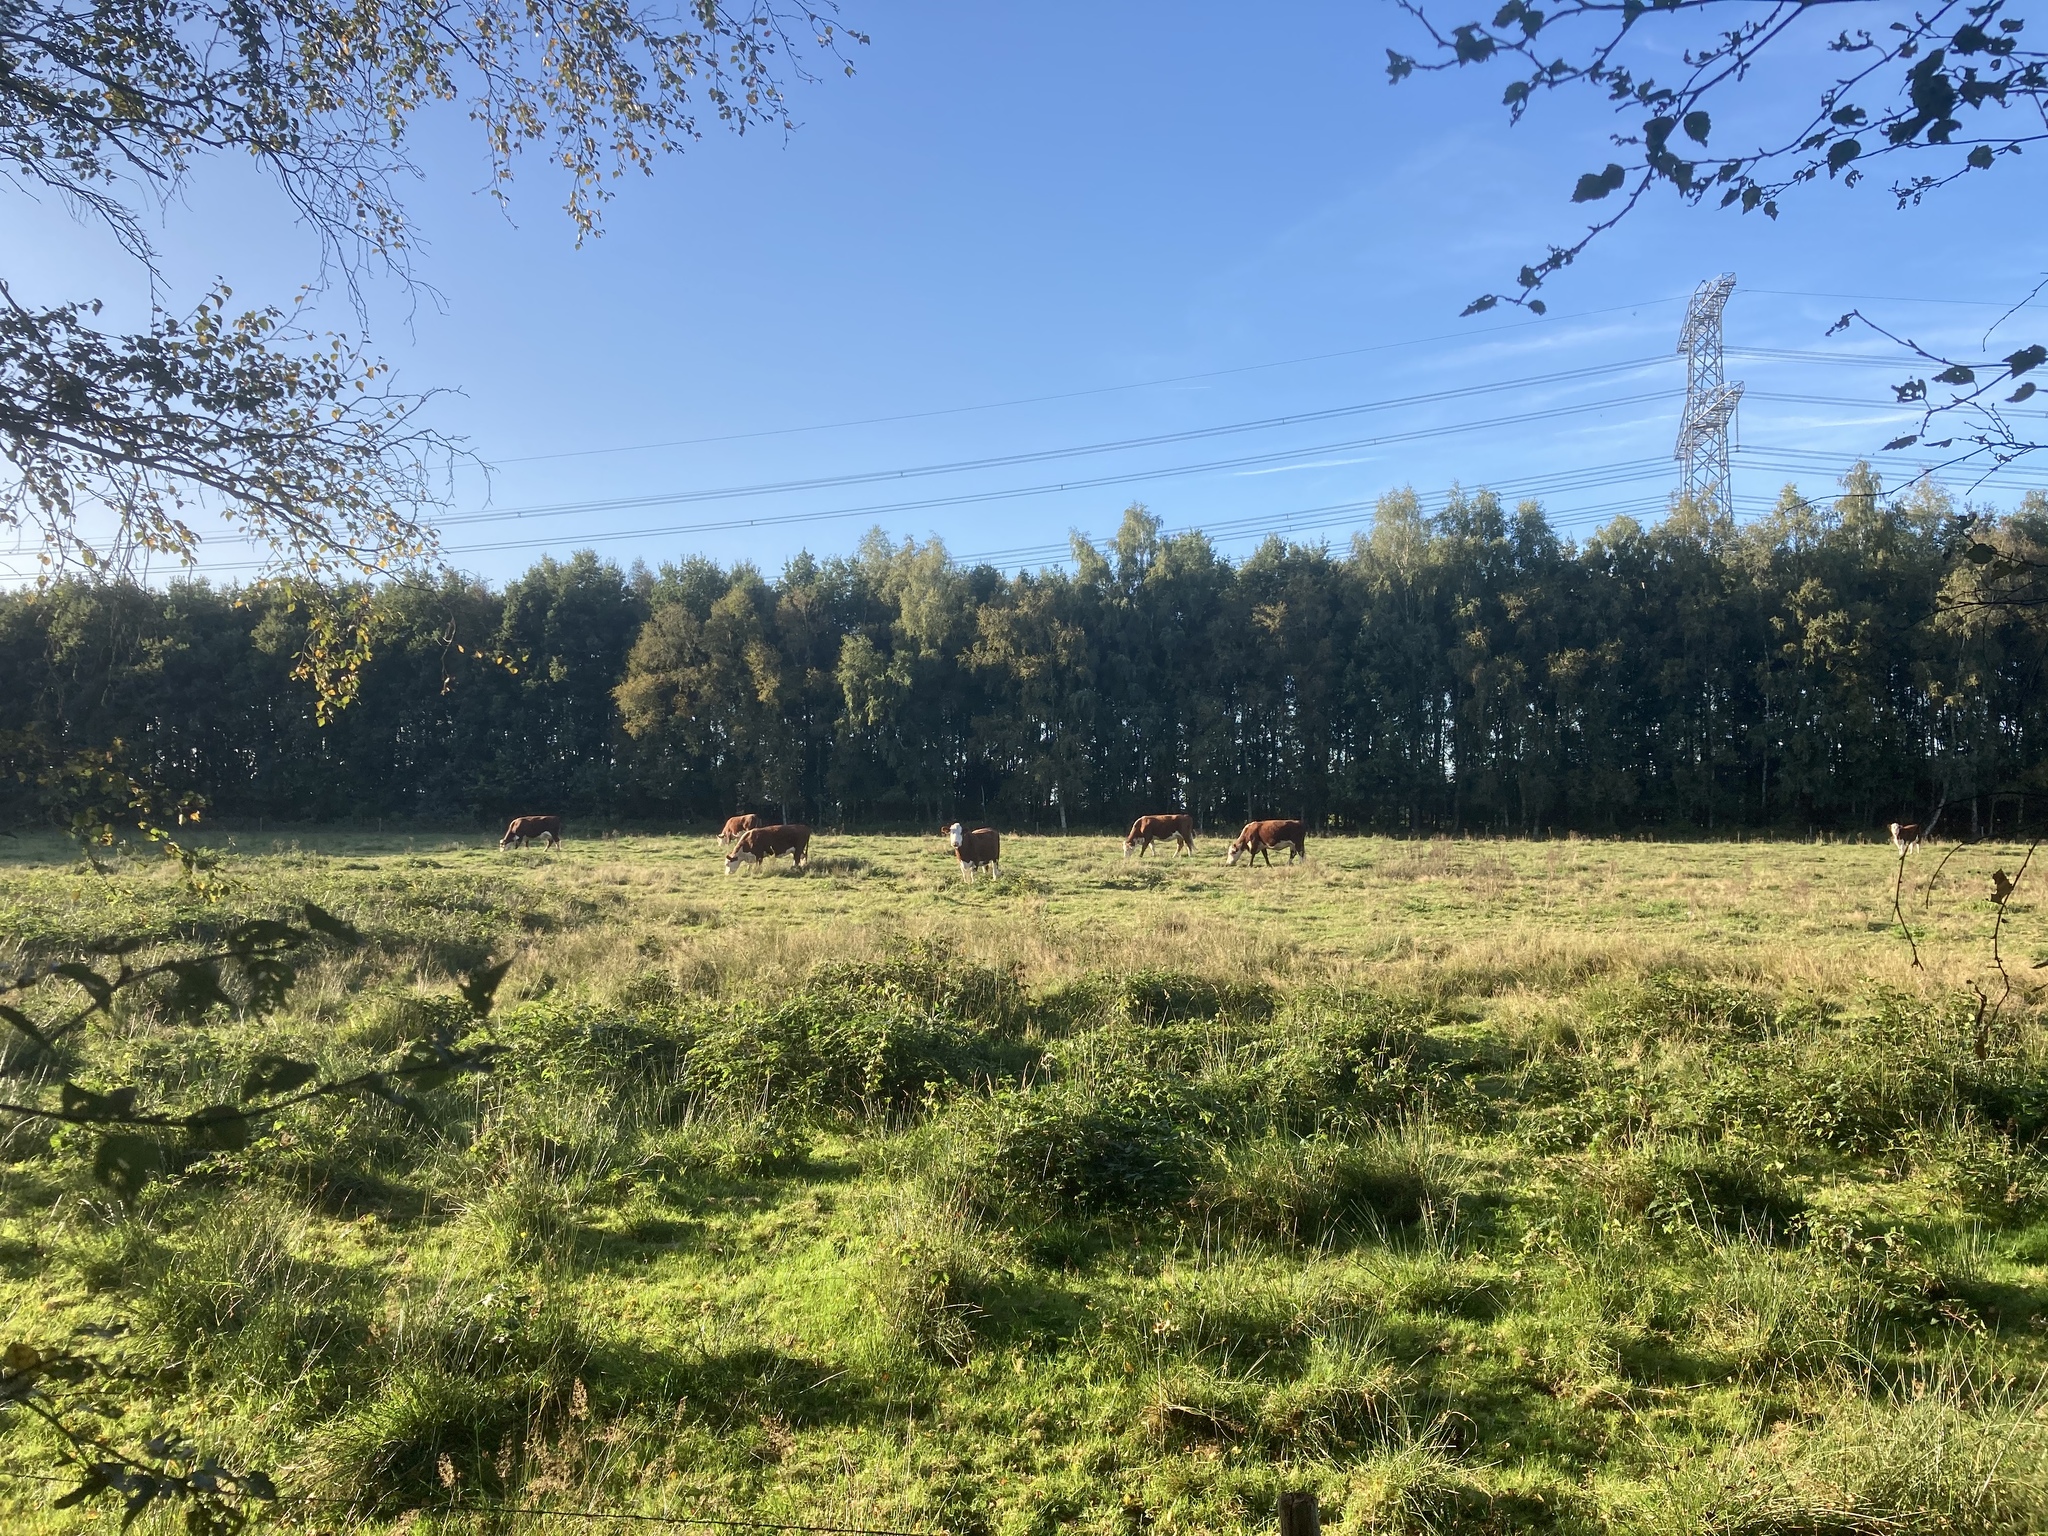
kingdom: Animalia
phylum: Chordata
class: Mammalia
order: Artiodactyla
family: Bovidae
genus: Bos
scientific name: Bos taurus
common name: Domesticated cattle
